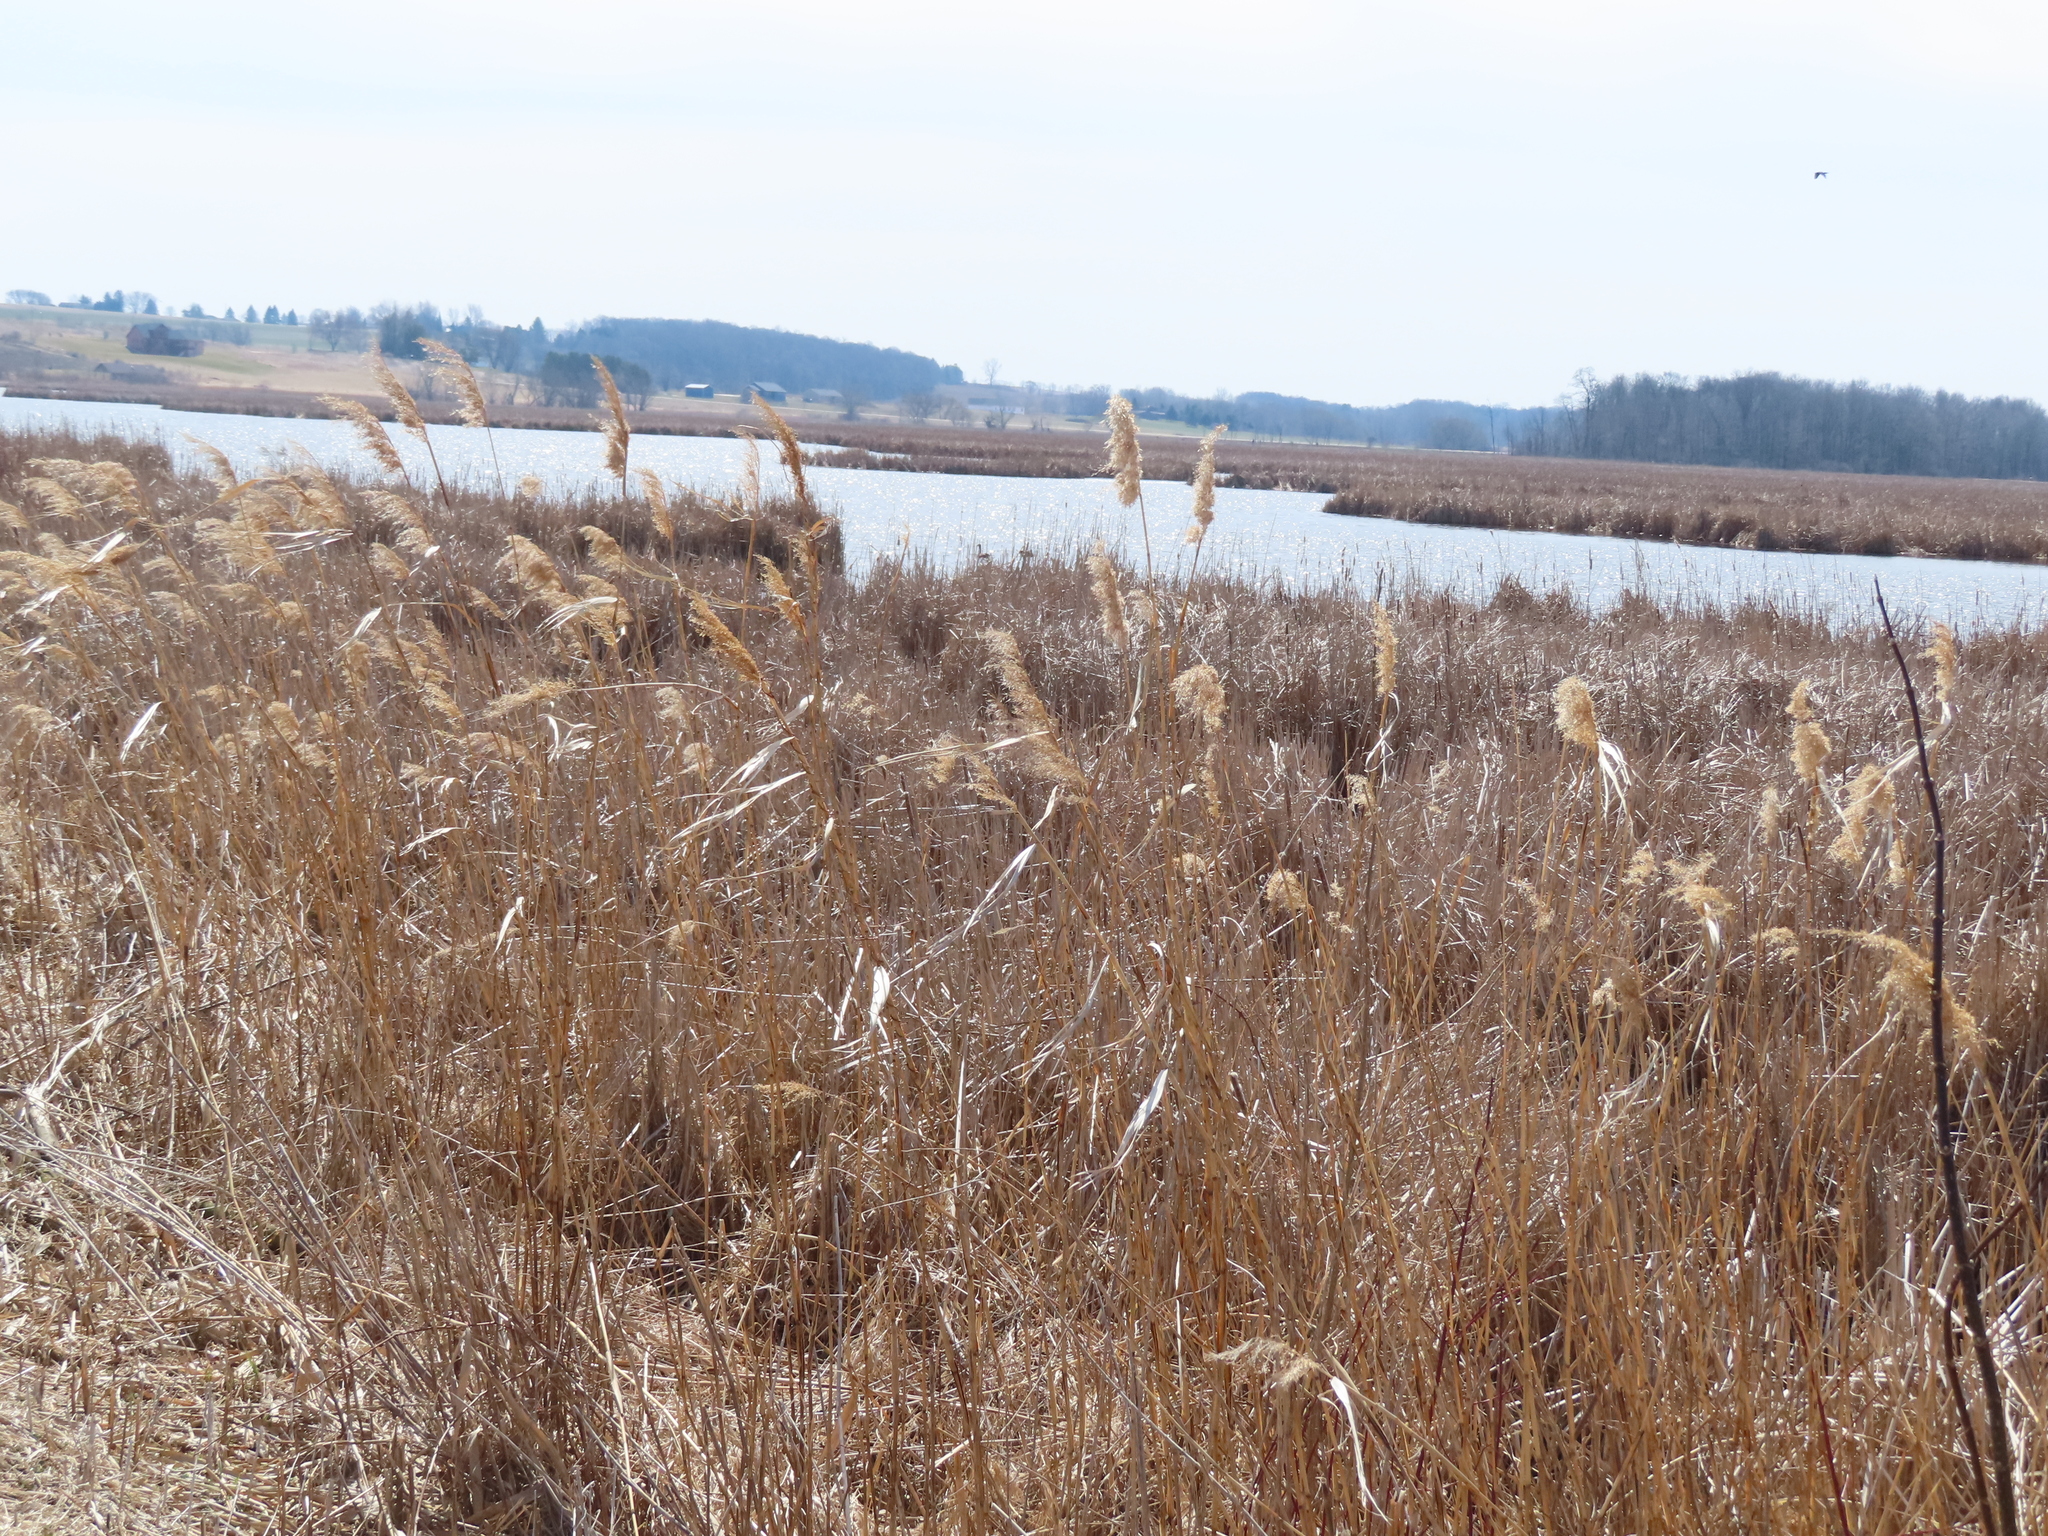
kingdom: Plantae
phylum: Tracheophyta
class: Liliopsida
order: Poales
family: Poaceae
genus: Phragmites
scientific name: Phragmites australis
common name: Common reed
